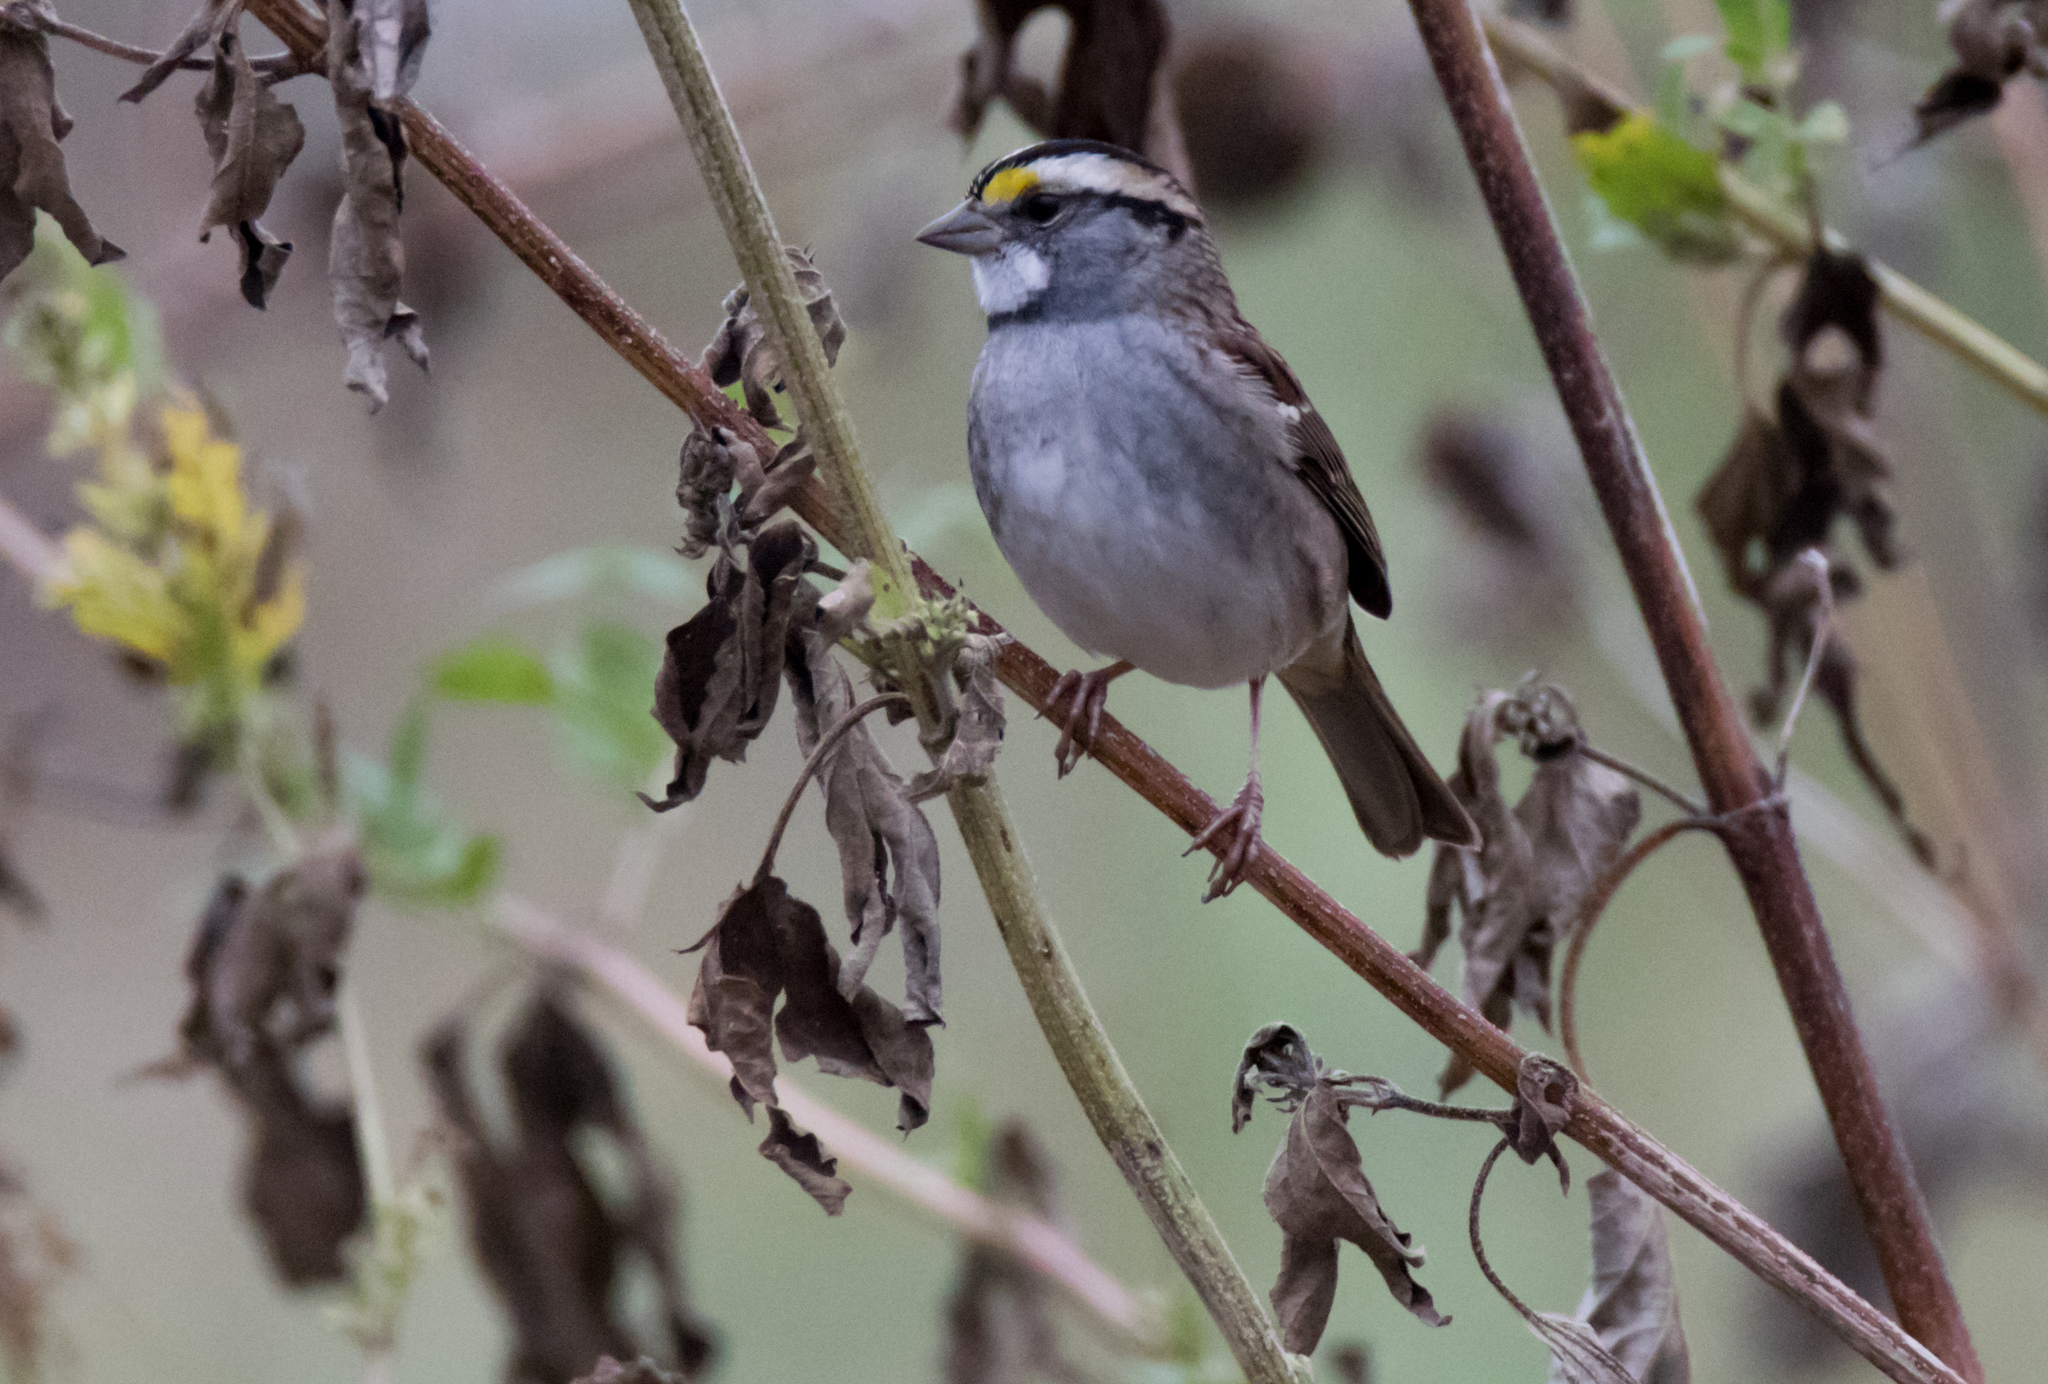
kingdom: Animalia
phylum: Chordata
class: Aves
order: Passeriformes
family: Passerellidae
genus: Zonotrichia
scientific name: Zonotrichia albicollis
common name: White-throated sparrow
